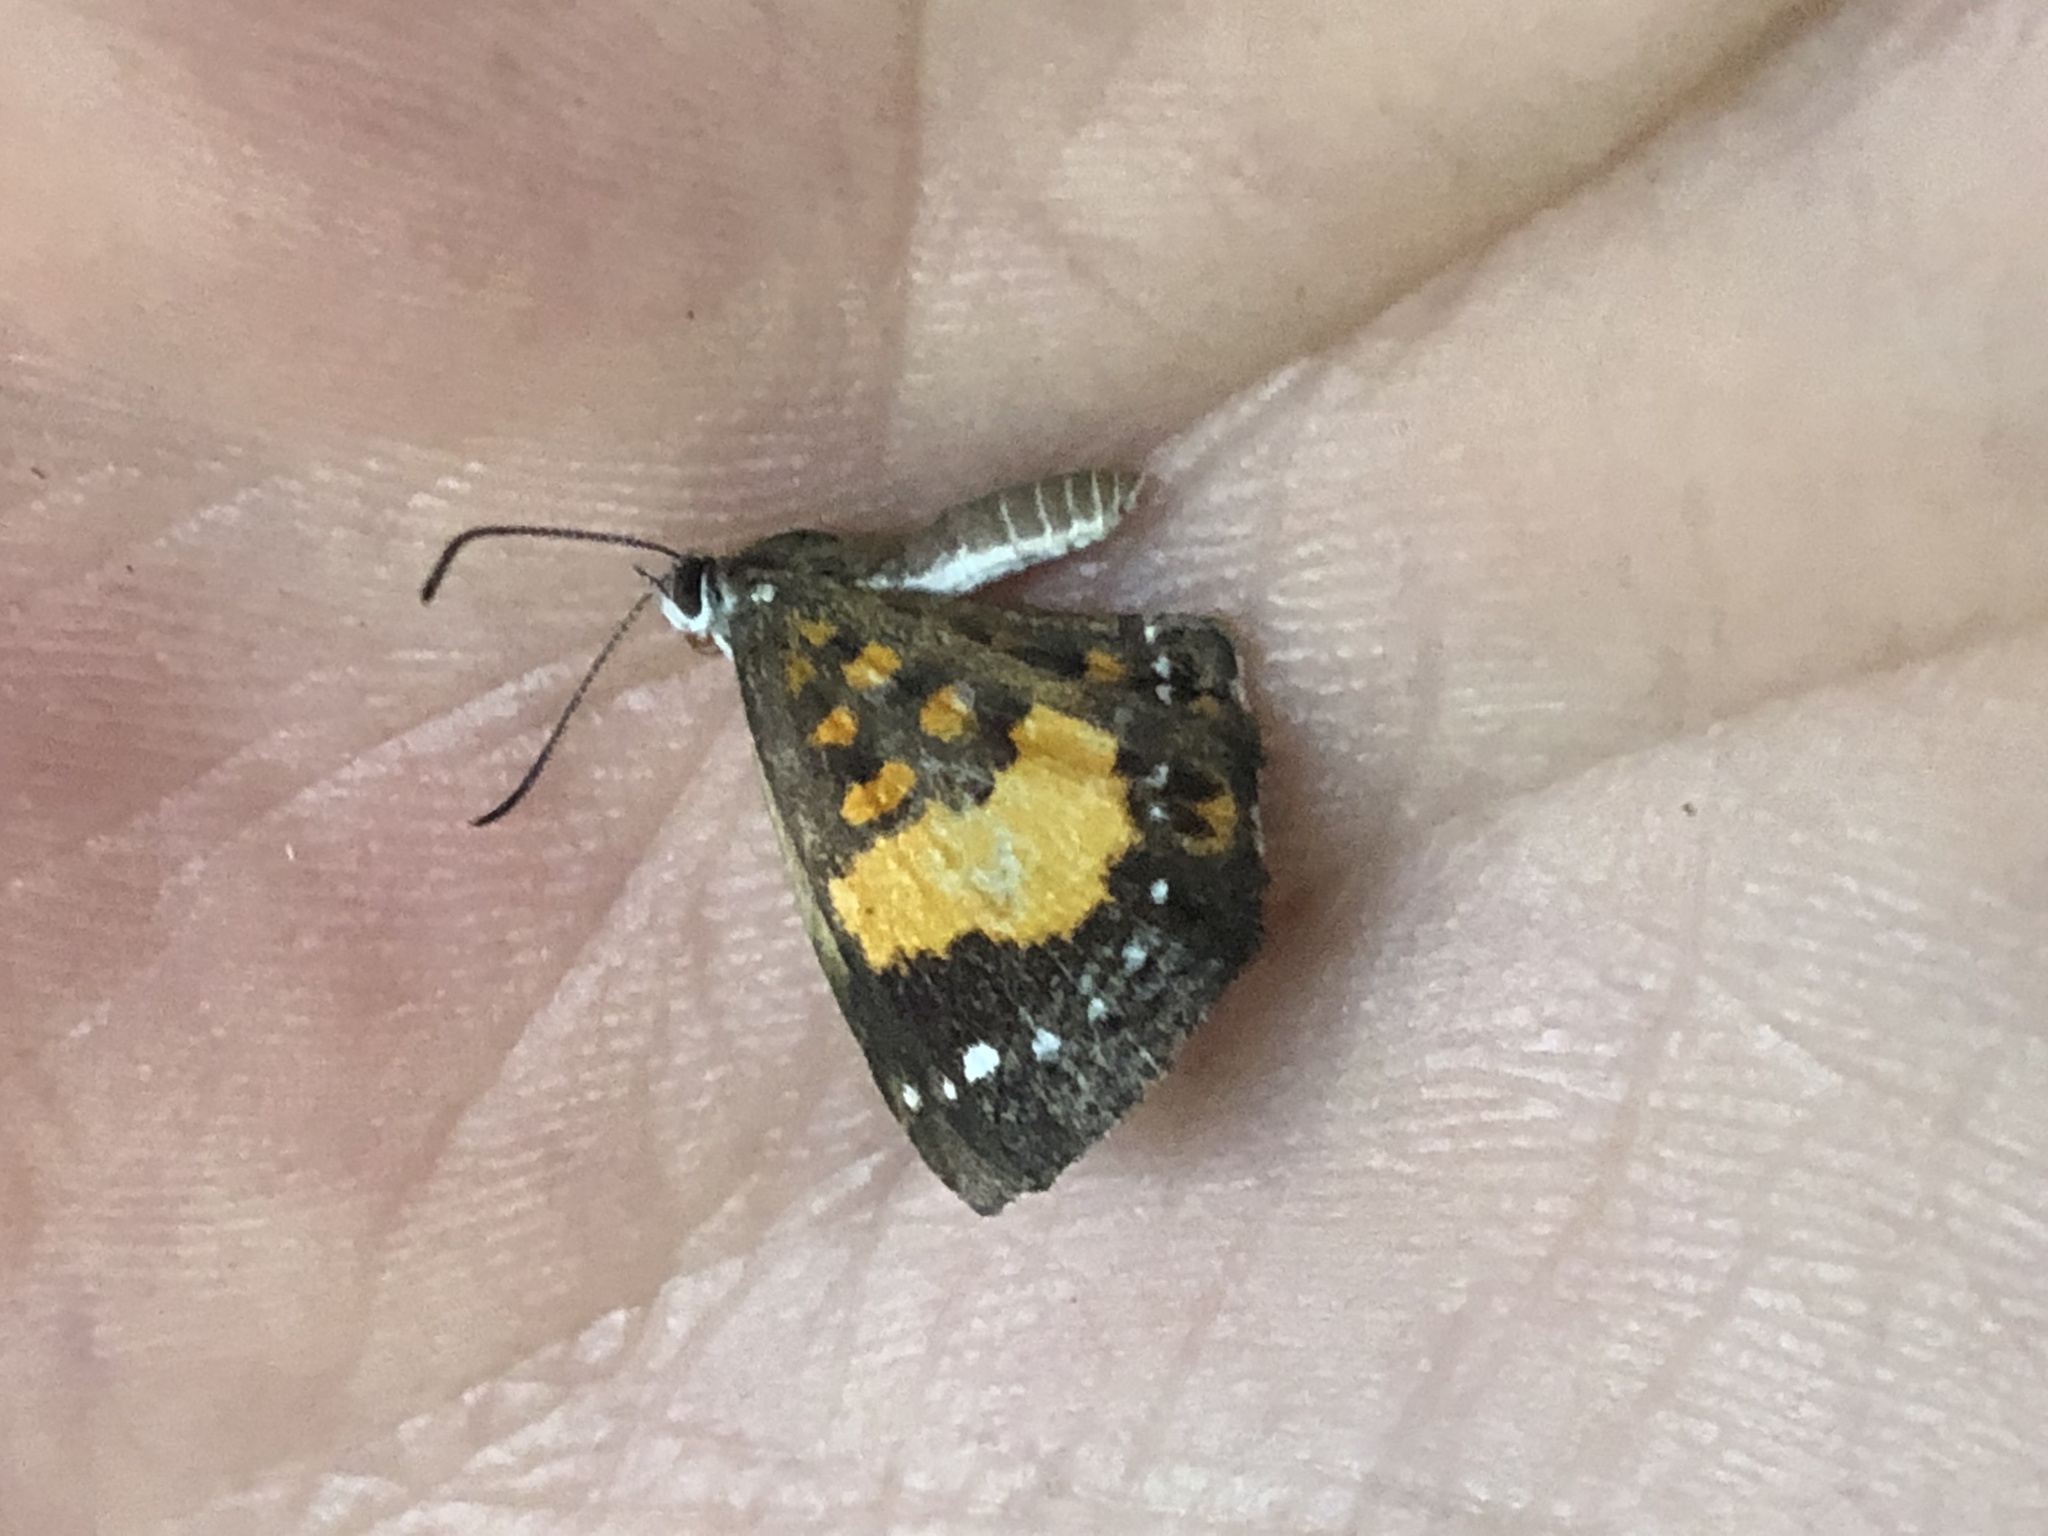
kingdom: Animalia
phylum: Arthropoda
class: Insecta
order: Lepidoptera
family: Riodinidae
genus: Polystichtis
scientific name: Polystichtis emylius
